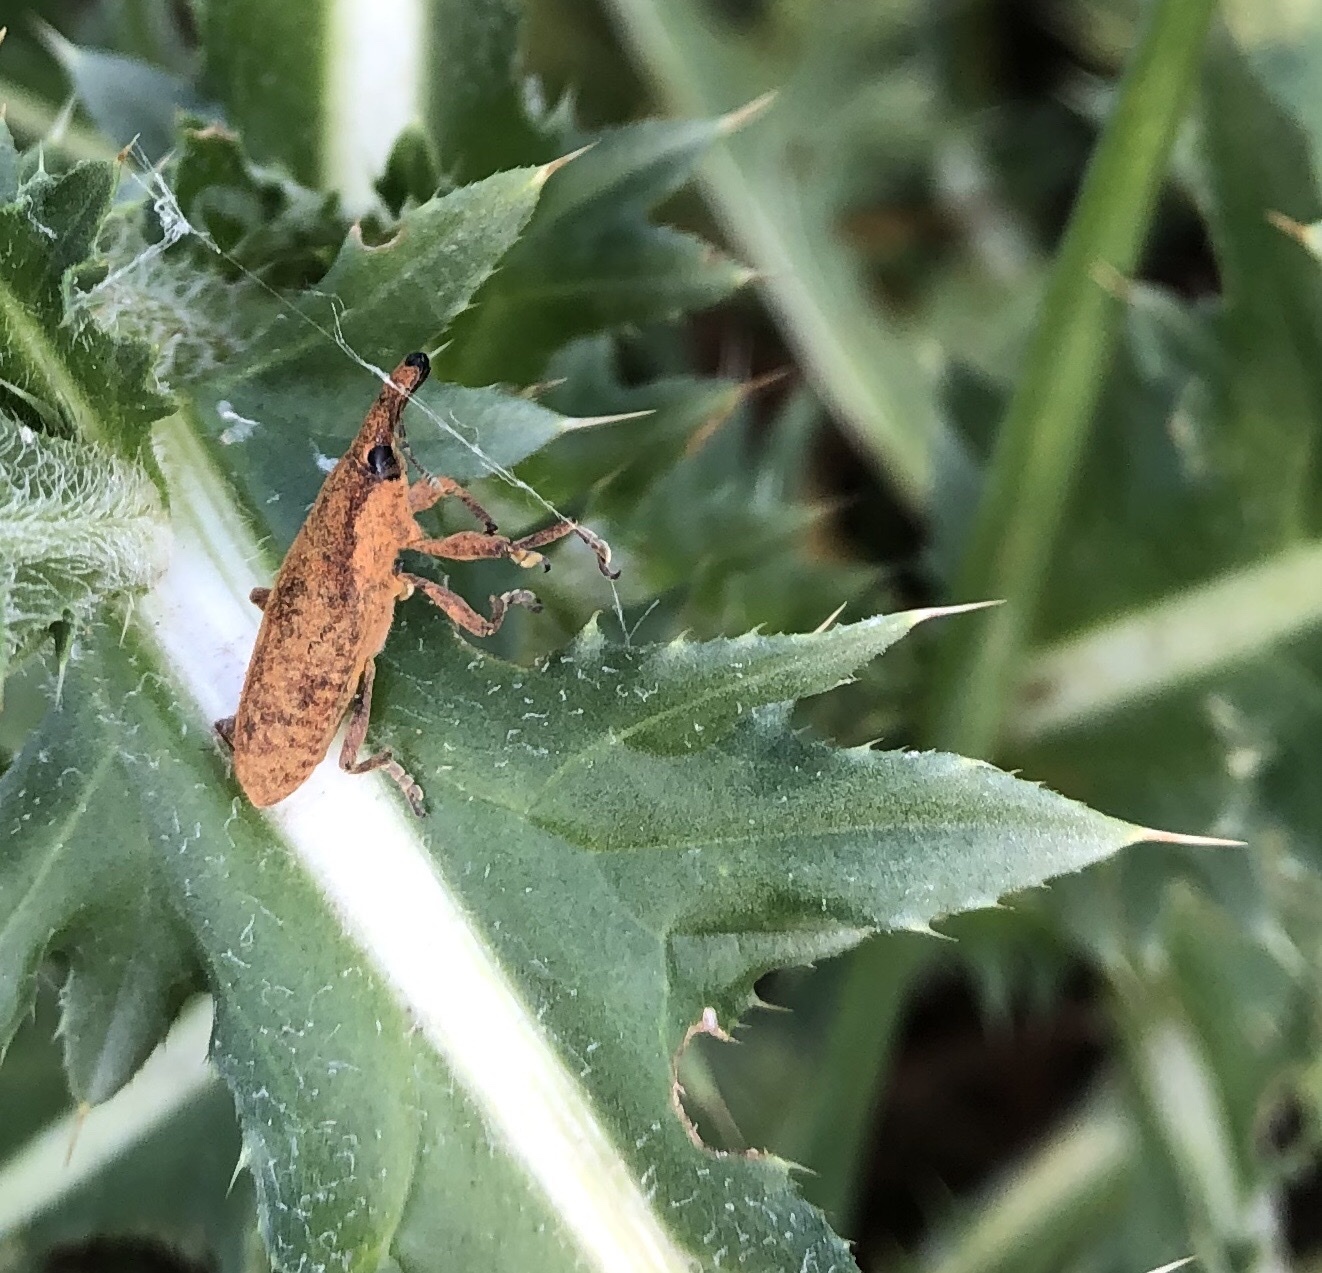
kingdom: Animalia
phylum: Arthropoda
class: Insecta
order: Coleoptera
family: Curculionidae
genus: Lixus
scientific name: Lixus pulverulentus
